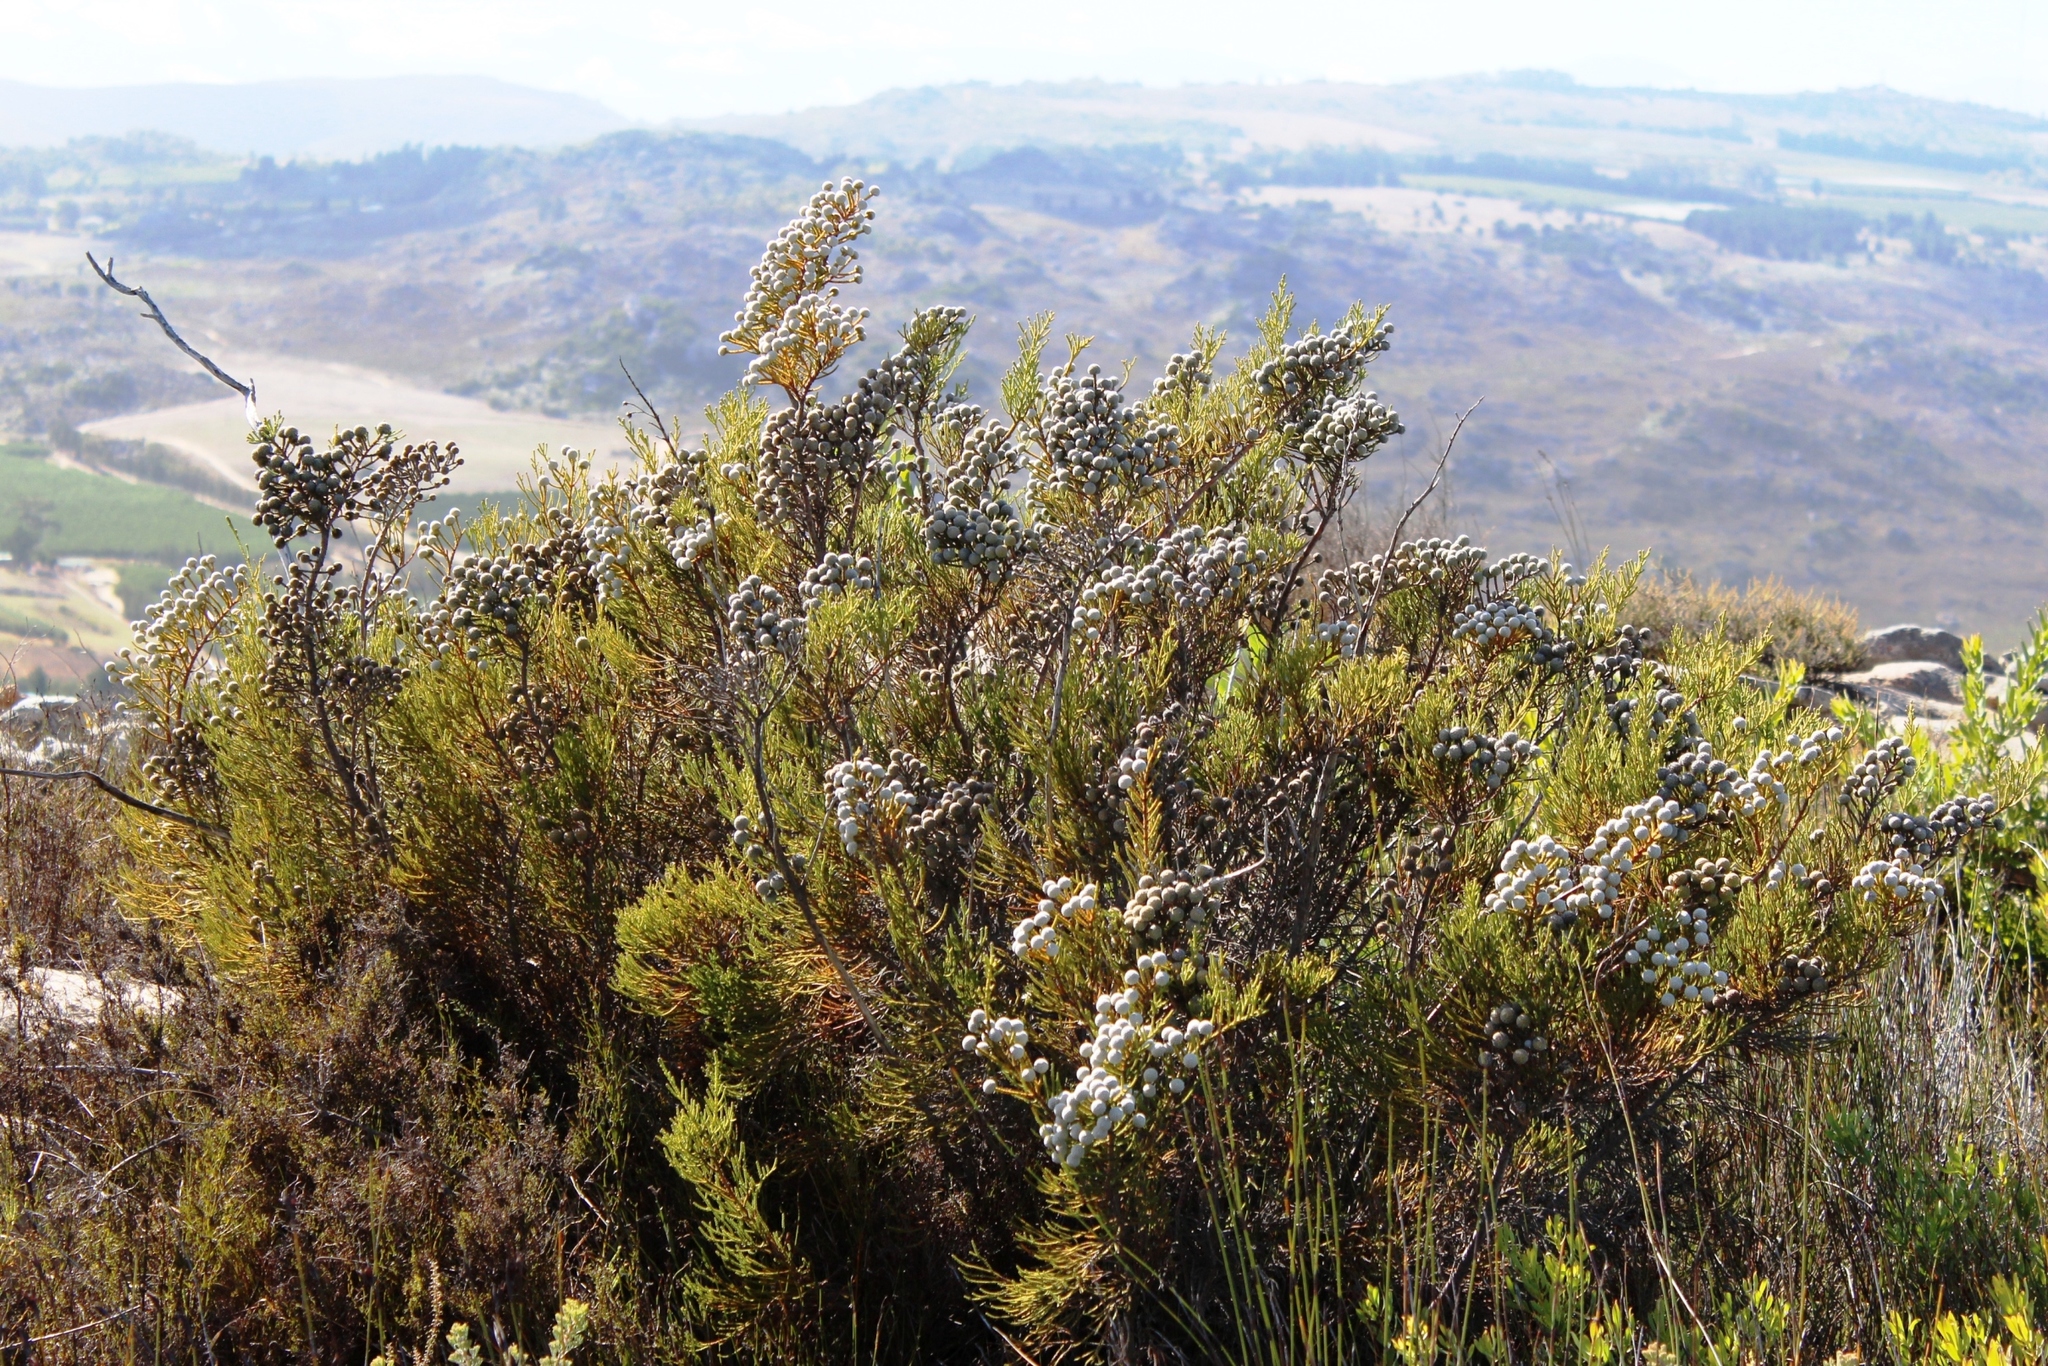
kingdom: Plantae
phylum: Tracheophyta
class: Magnoliopsida
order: Bruniales
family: Bruniaceae
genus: Brunia
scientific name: Brunia noduliflora
